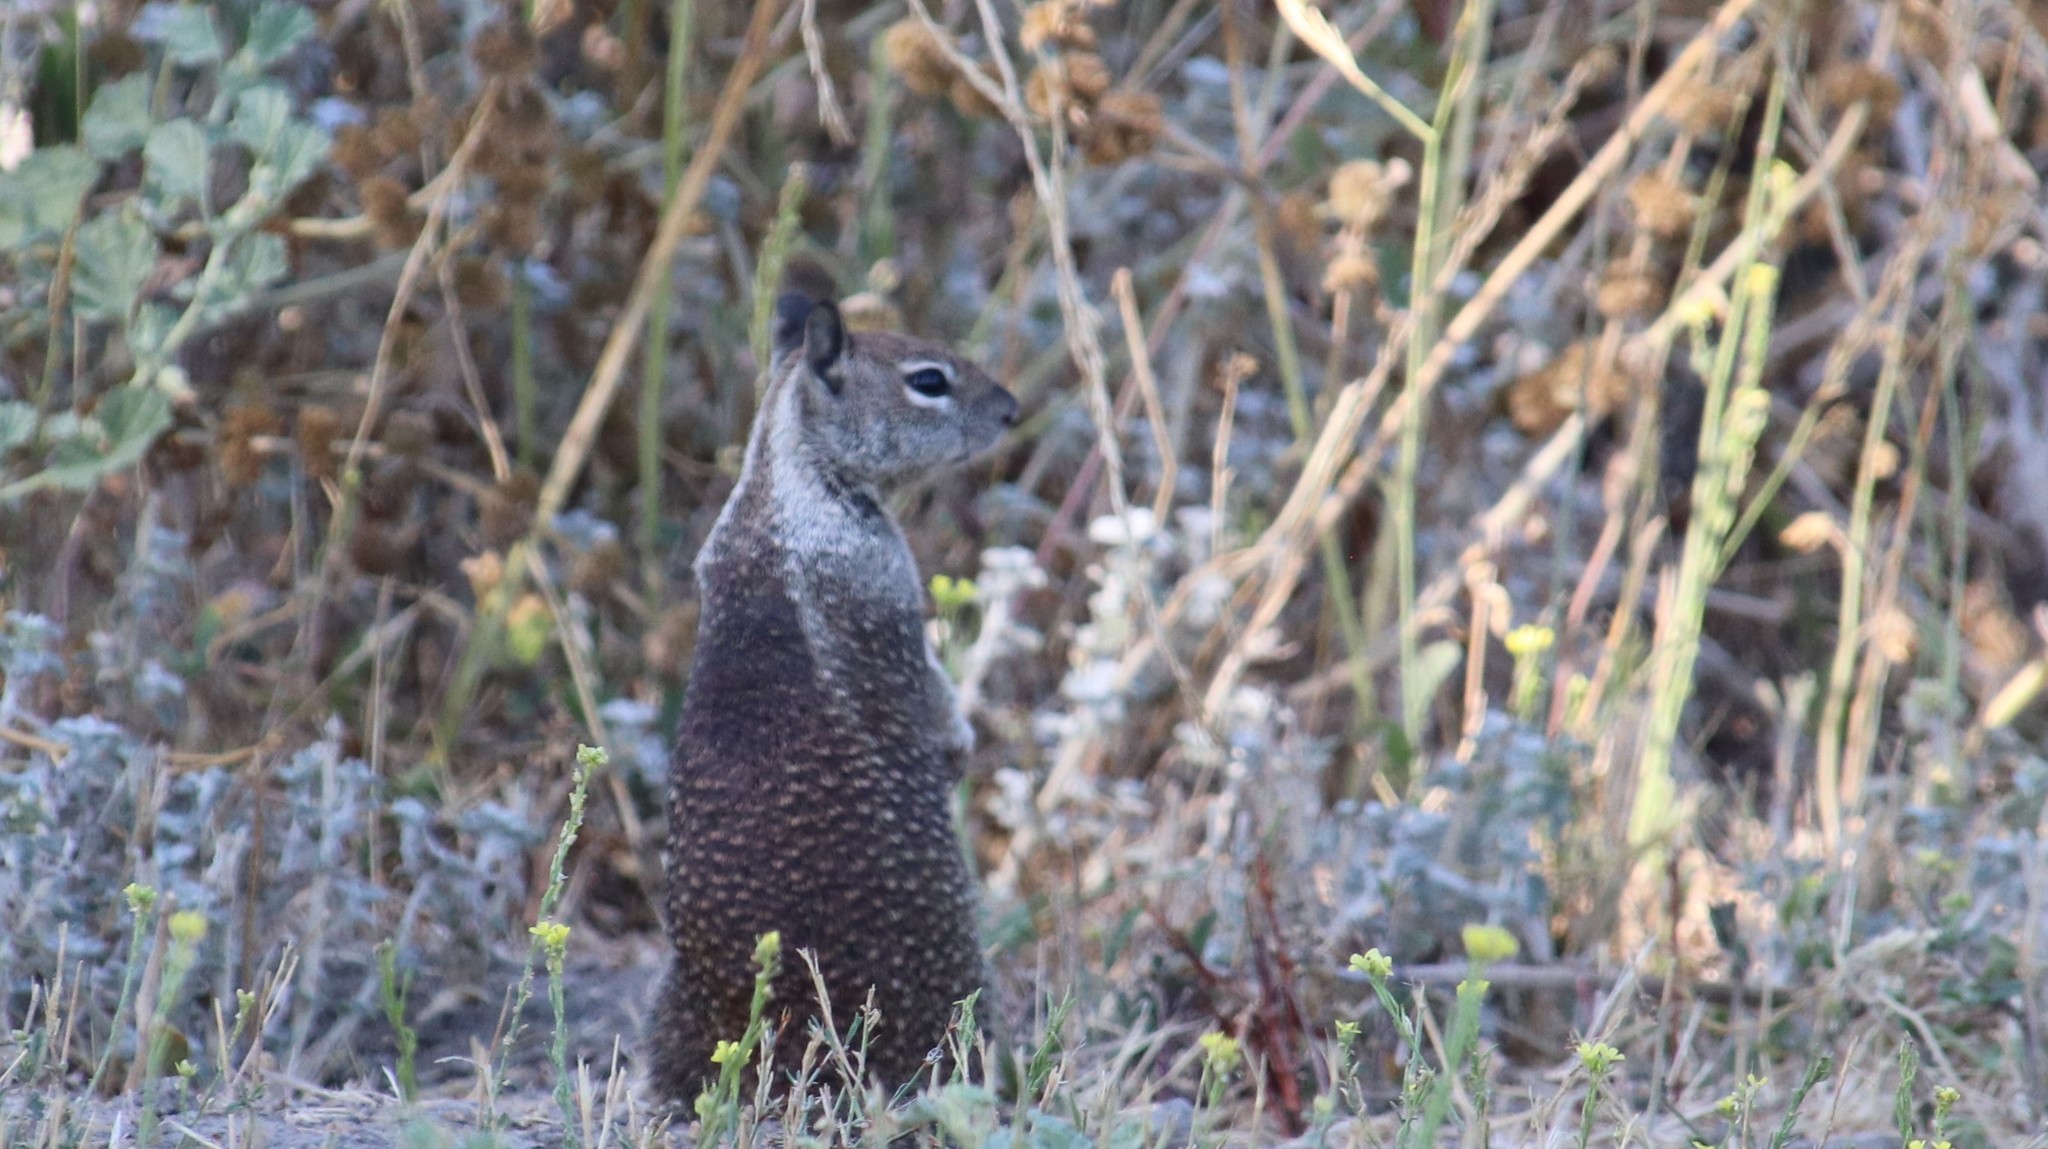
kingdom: Animalia
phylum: Chordata
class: Mammalia
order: Rodentia
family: Sciuridae
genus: Otospermophilus
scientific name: Otospermophilus beecheyi
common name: California ground squirrel
